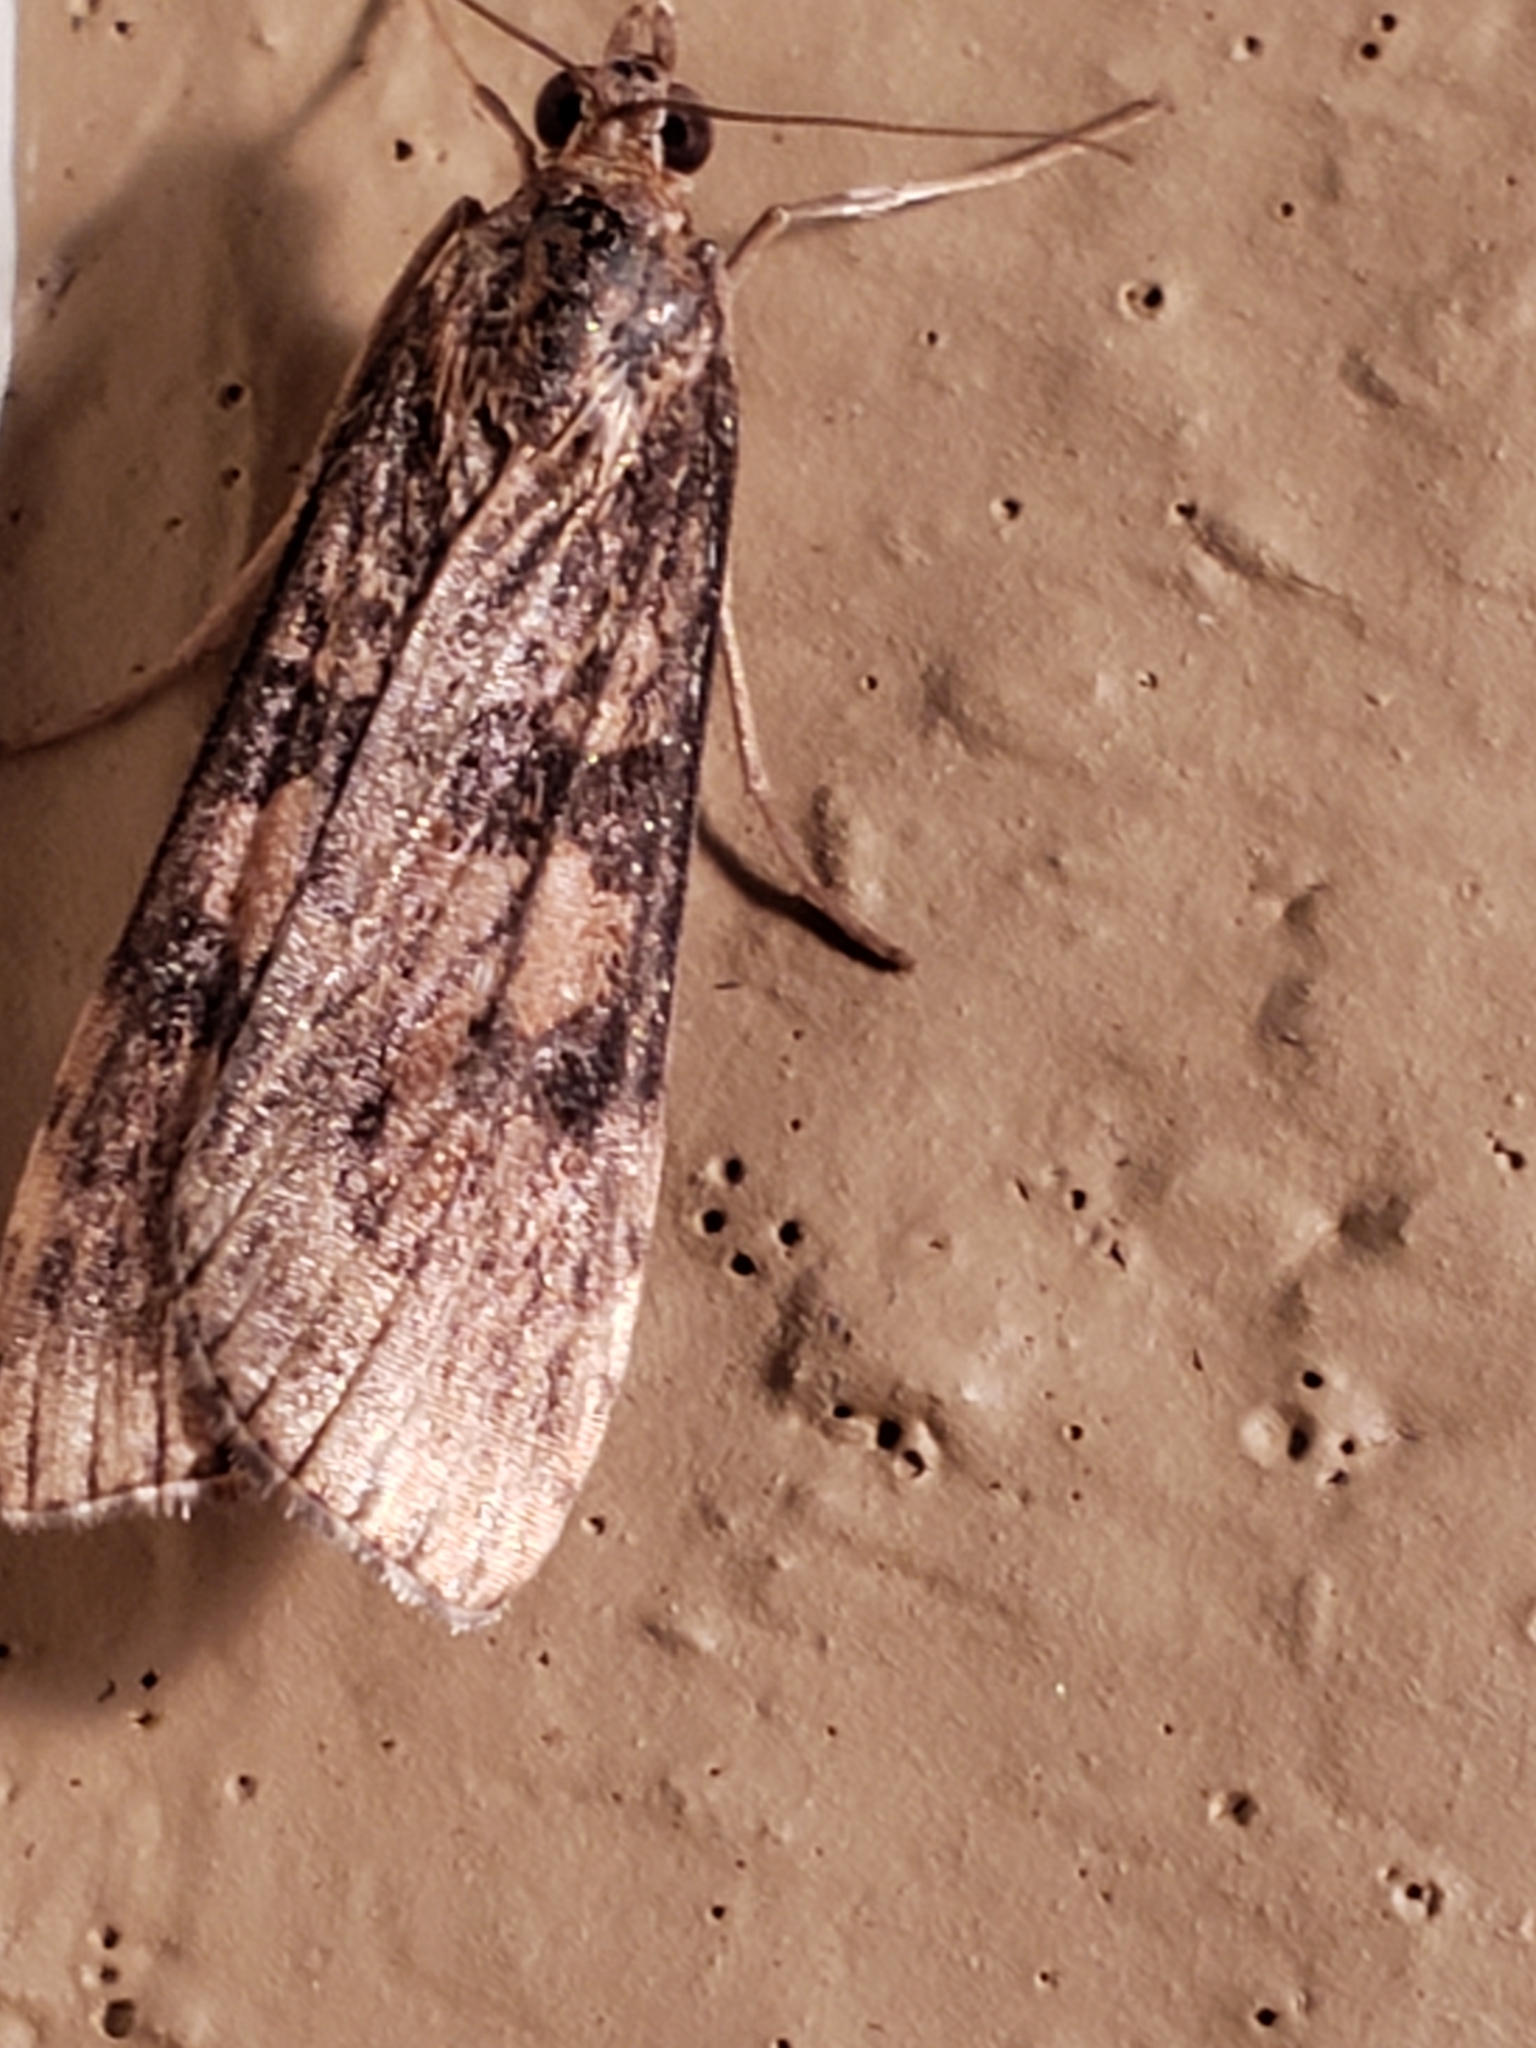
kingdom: Animalia
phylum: Arthropoda
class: Insecta
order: Lepidoptera
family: Crambidae
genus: Nomophila
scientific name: Nomophila nearctica
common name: American rush veneer
